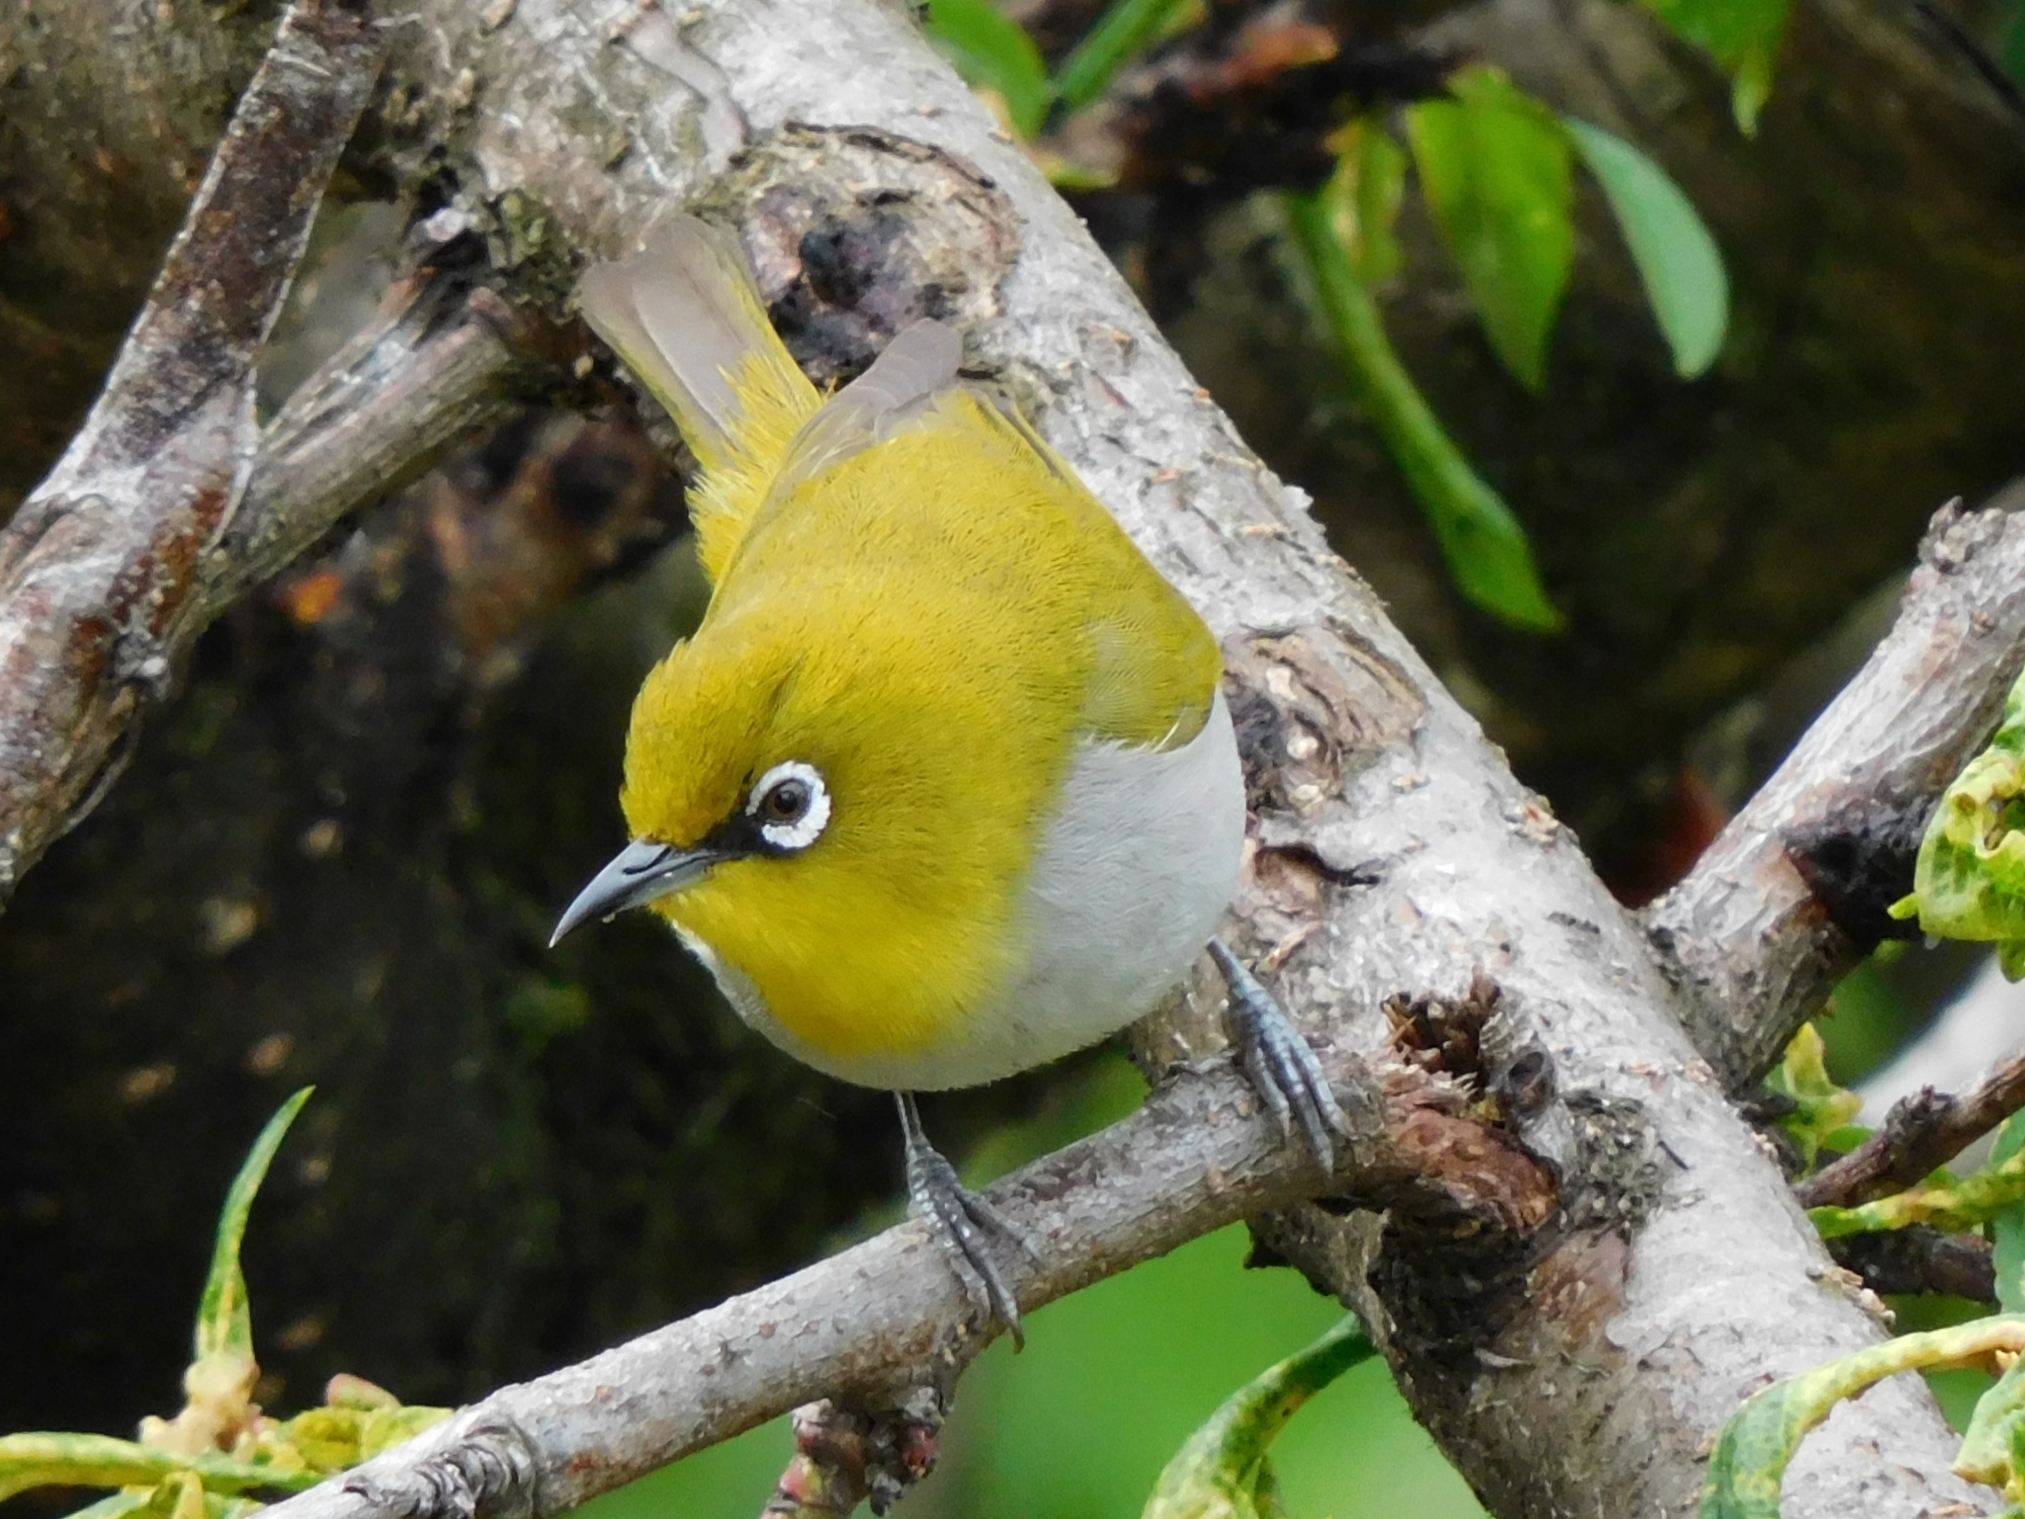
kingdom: Animalia
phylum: Chordata
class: Aves
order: Passeriformes
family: Zosteropidae
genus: Zosterops
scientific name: Zosterops palpebrosus
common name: Oriental white-eye
